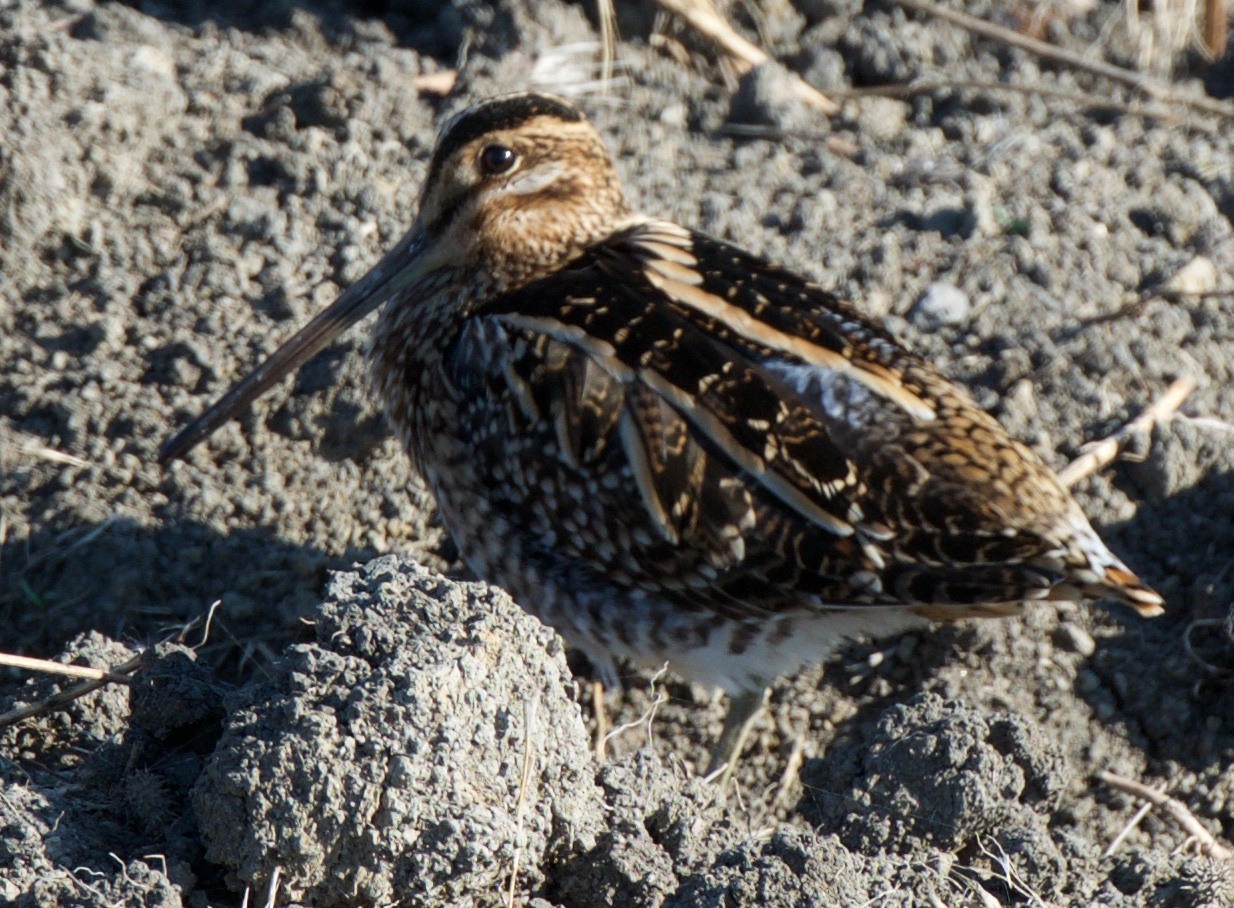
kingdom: Animalia
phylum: Chordata
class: Aves
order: Charadriiformes
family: Scolopacidae
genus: Gallinago
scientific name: Gallinago delicata
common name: Wilson's snipe
